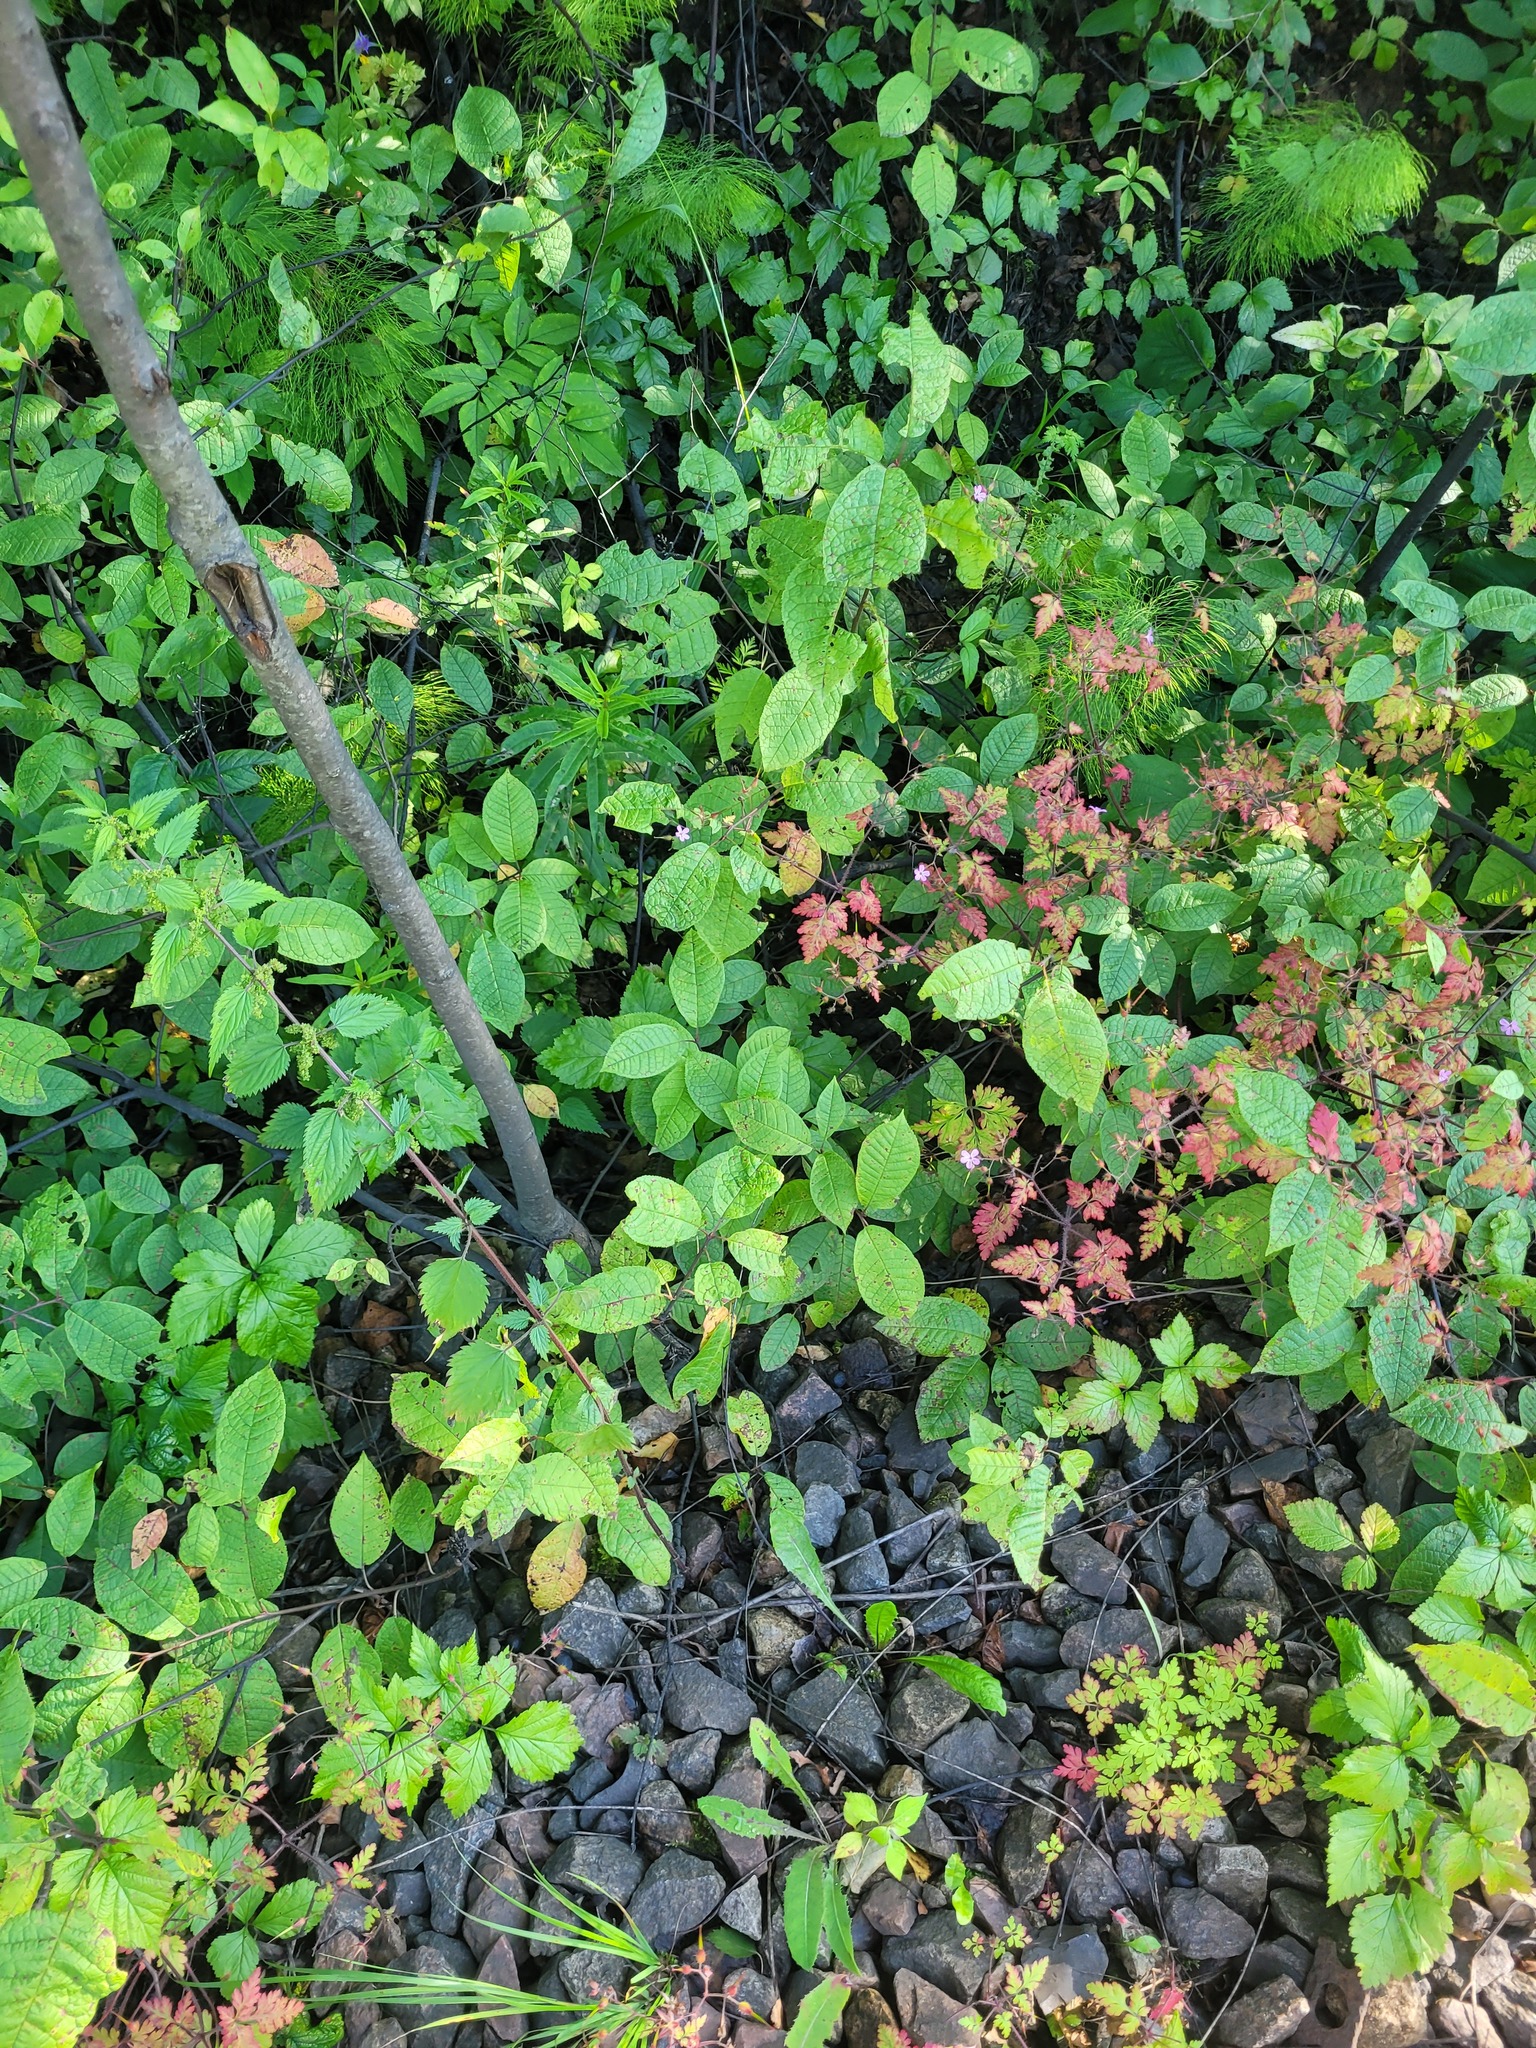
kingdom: Plantae
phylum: Tracheophyta
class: Magnoliopsida
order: Rosales
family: Rosaceae
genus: Prunus
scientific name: Prunus padus
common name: Bird cherry
